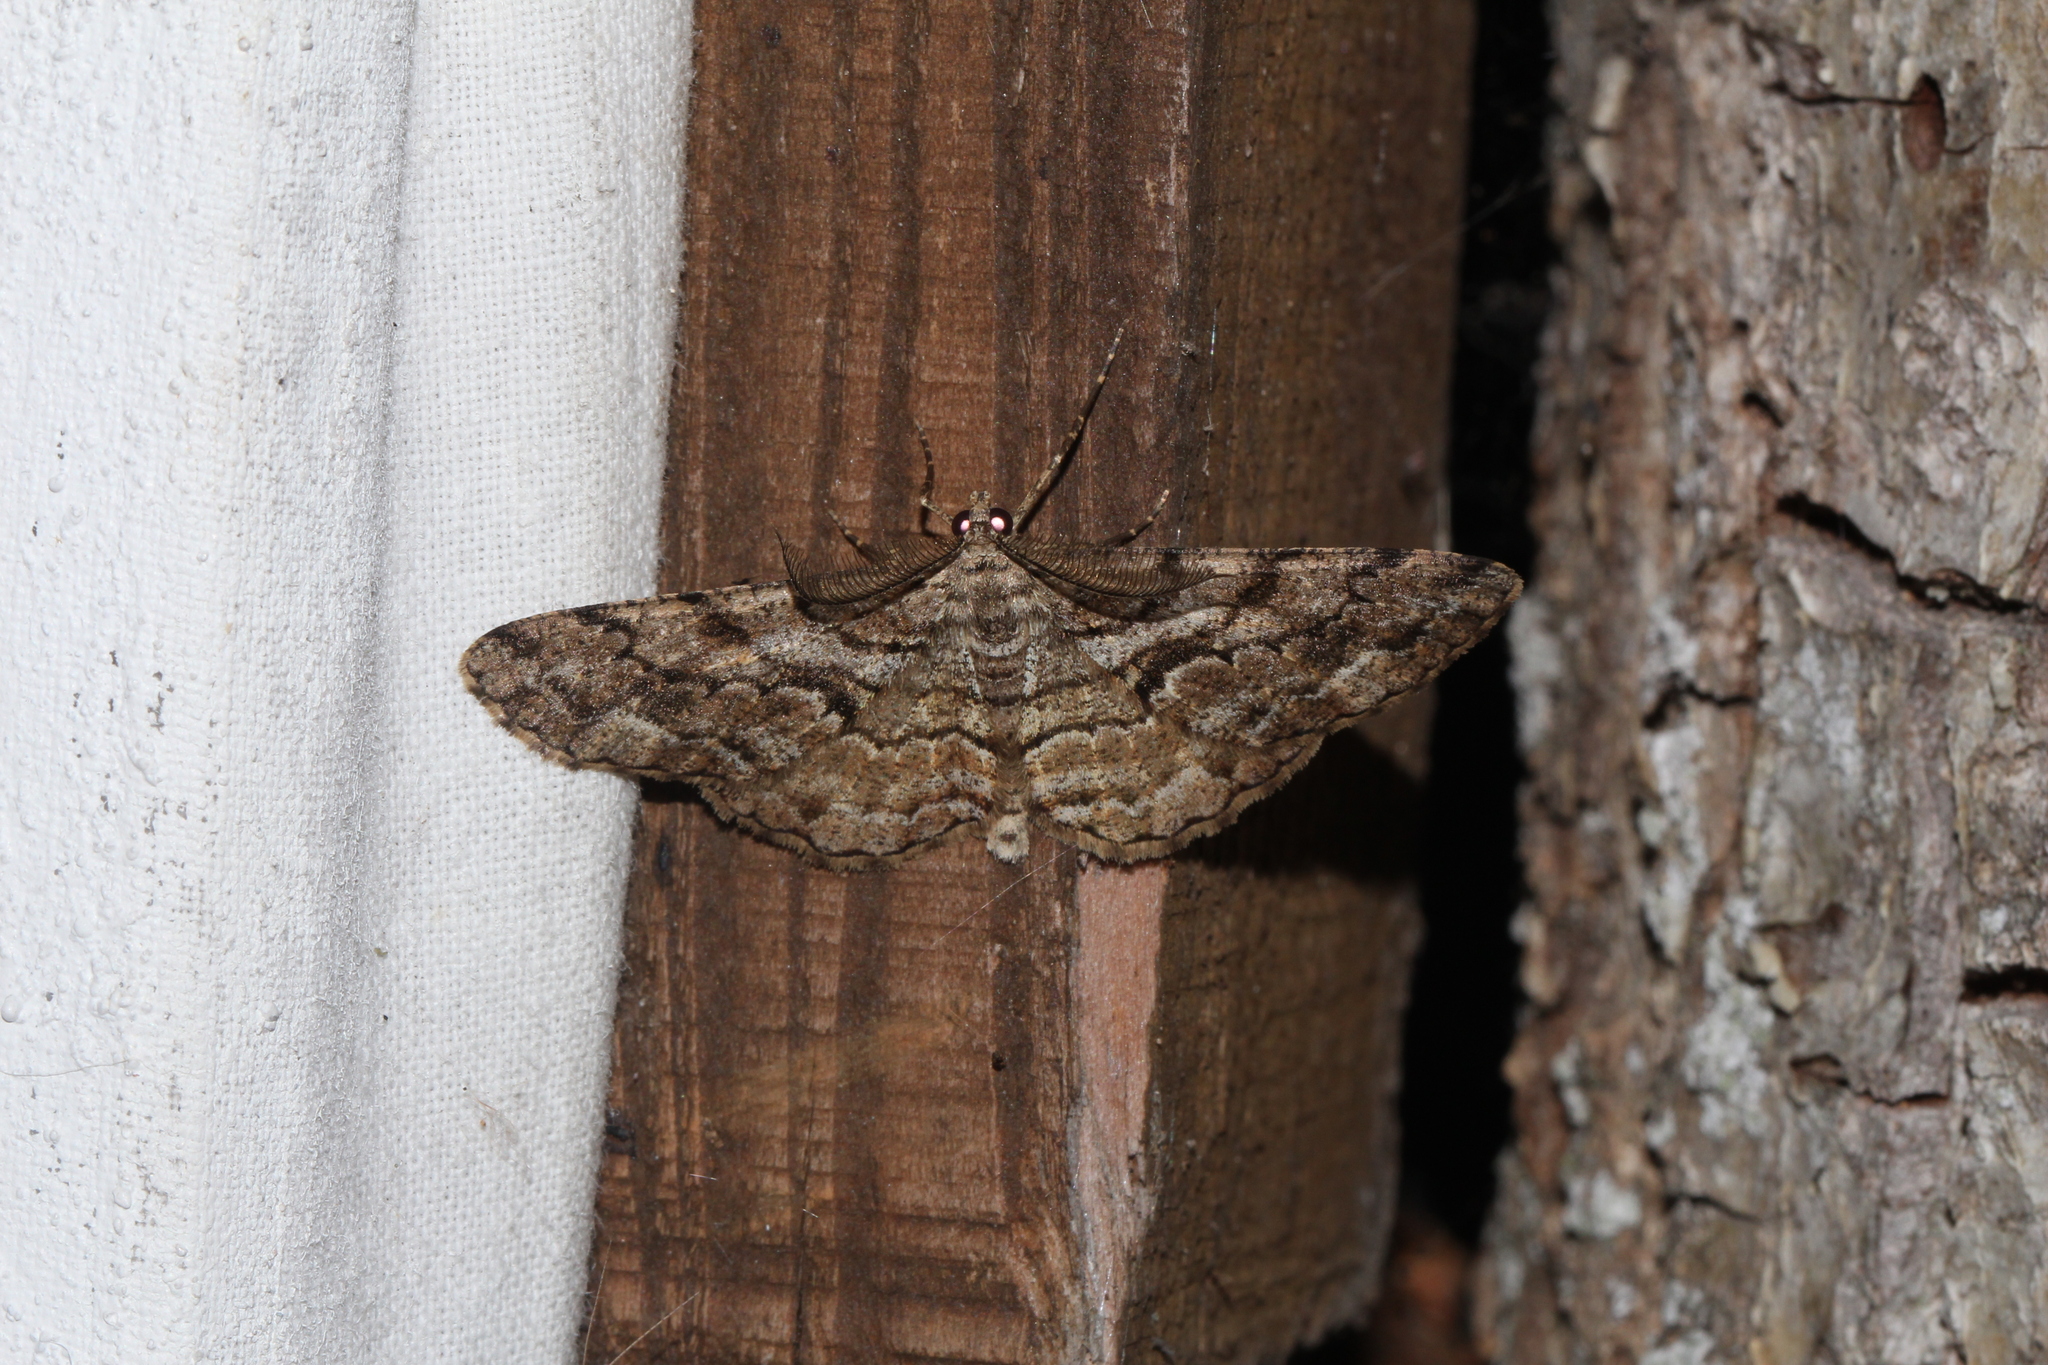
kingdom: Animalia
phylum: Arthropoda
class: Insecta
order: Lepidoptera
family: Geometridae
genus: Peribatodes
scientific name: Peribatodes secundaria
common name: Feathered beauty
